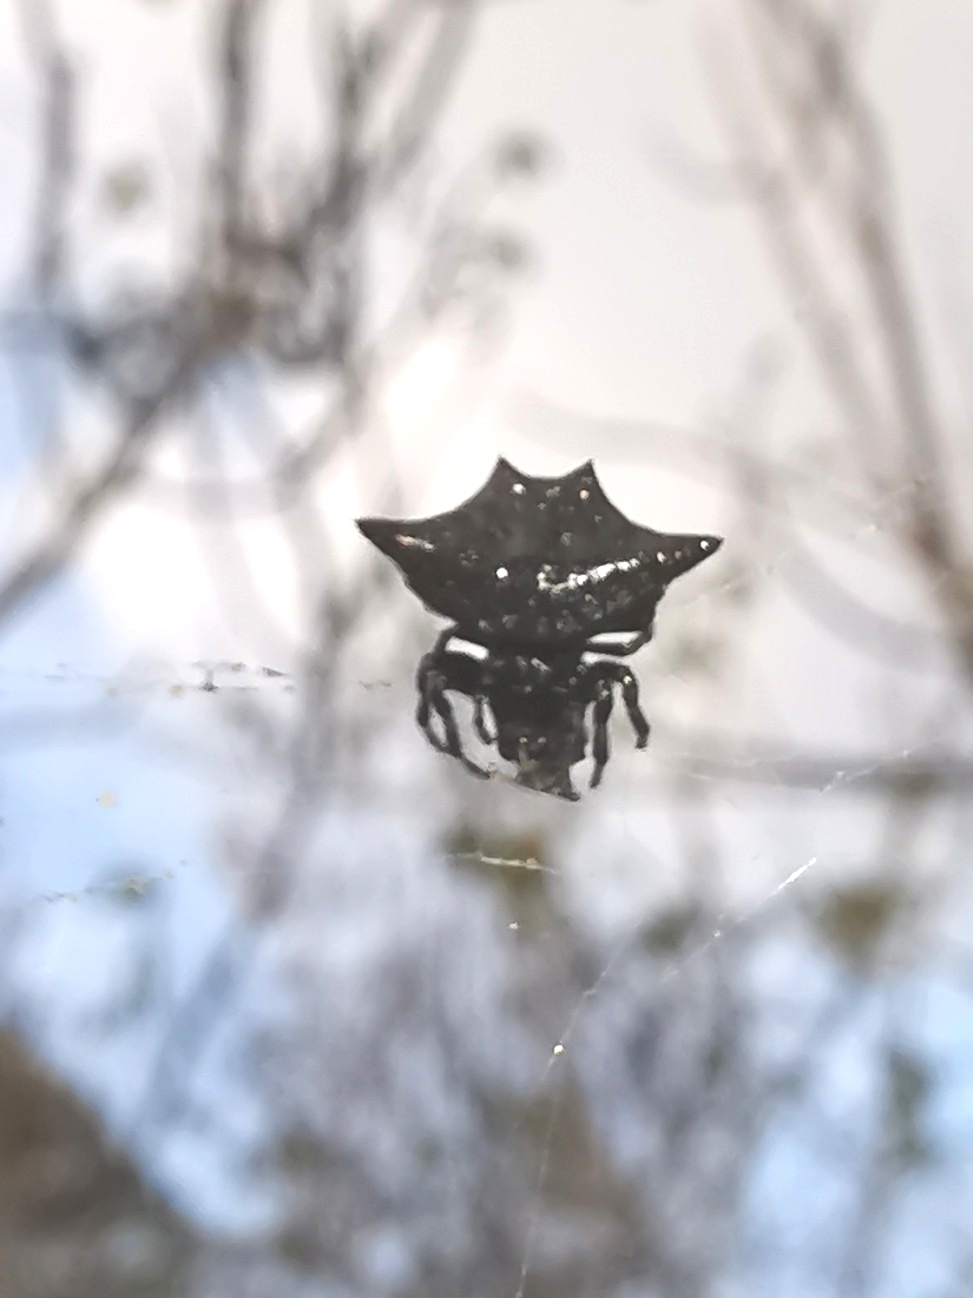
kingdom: Animalia
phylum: Arthropoda
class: Arachnida
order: Araneae
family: Araneidae
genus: Gasteracantha
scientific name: Gasteracantha cancriformis
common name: Orb weavers
